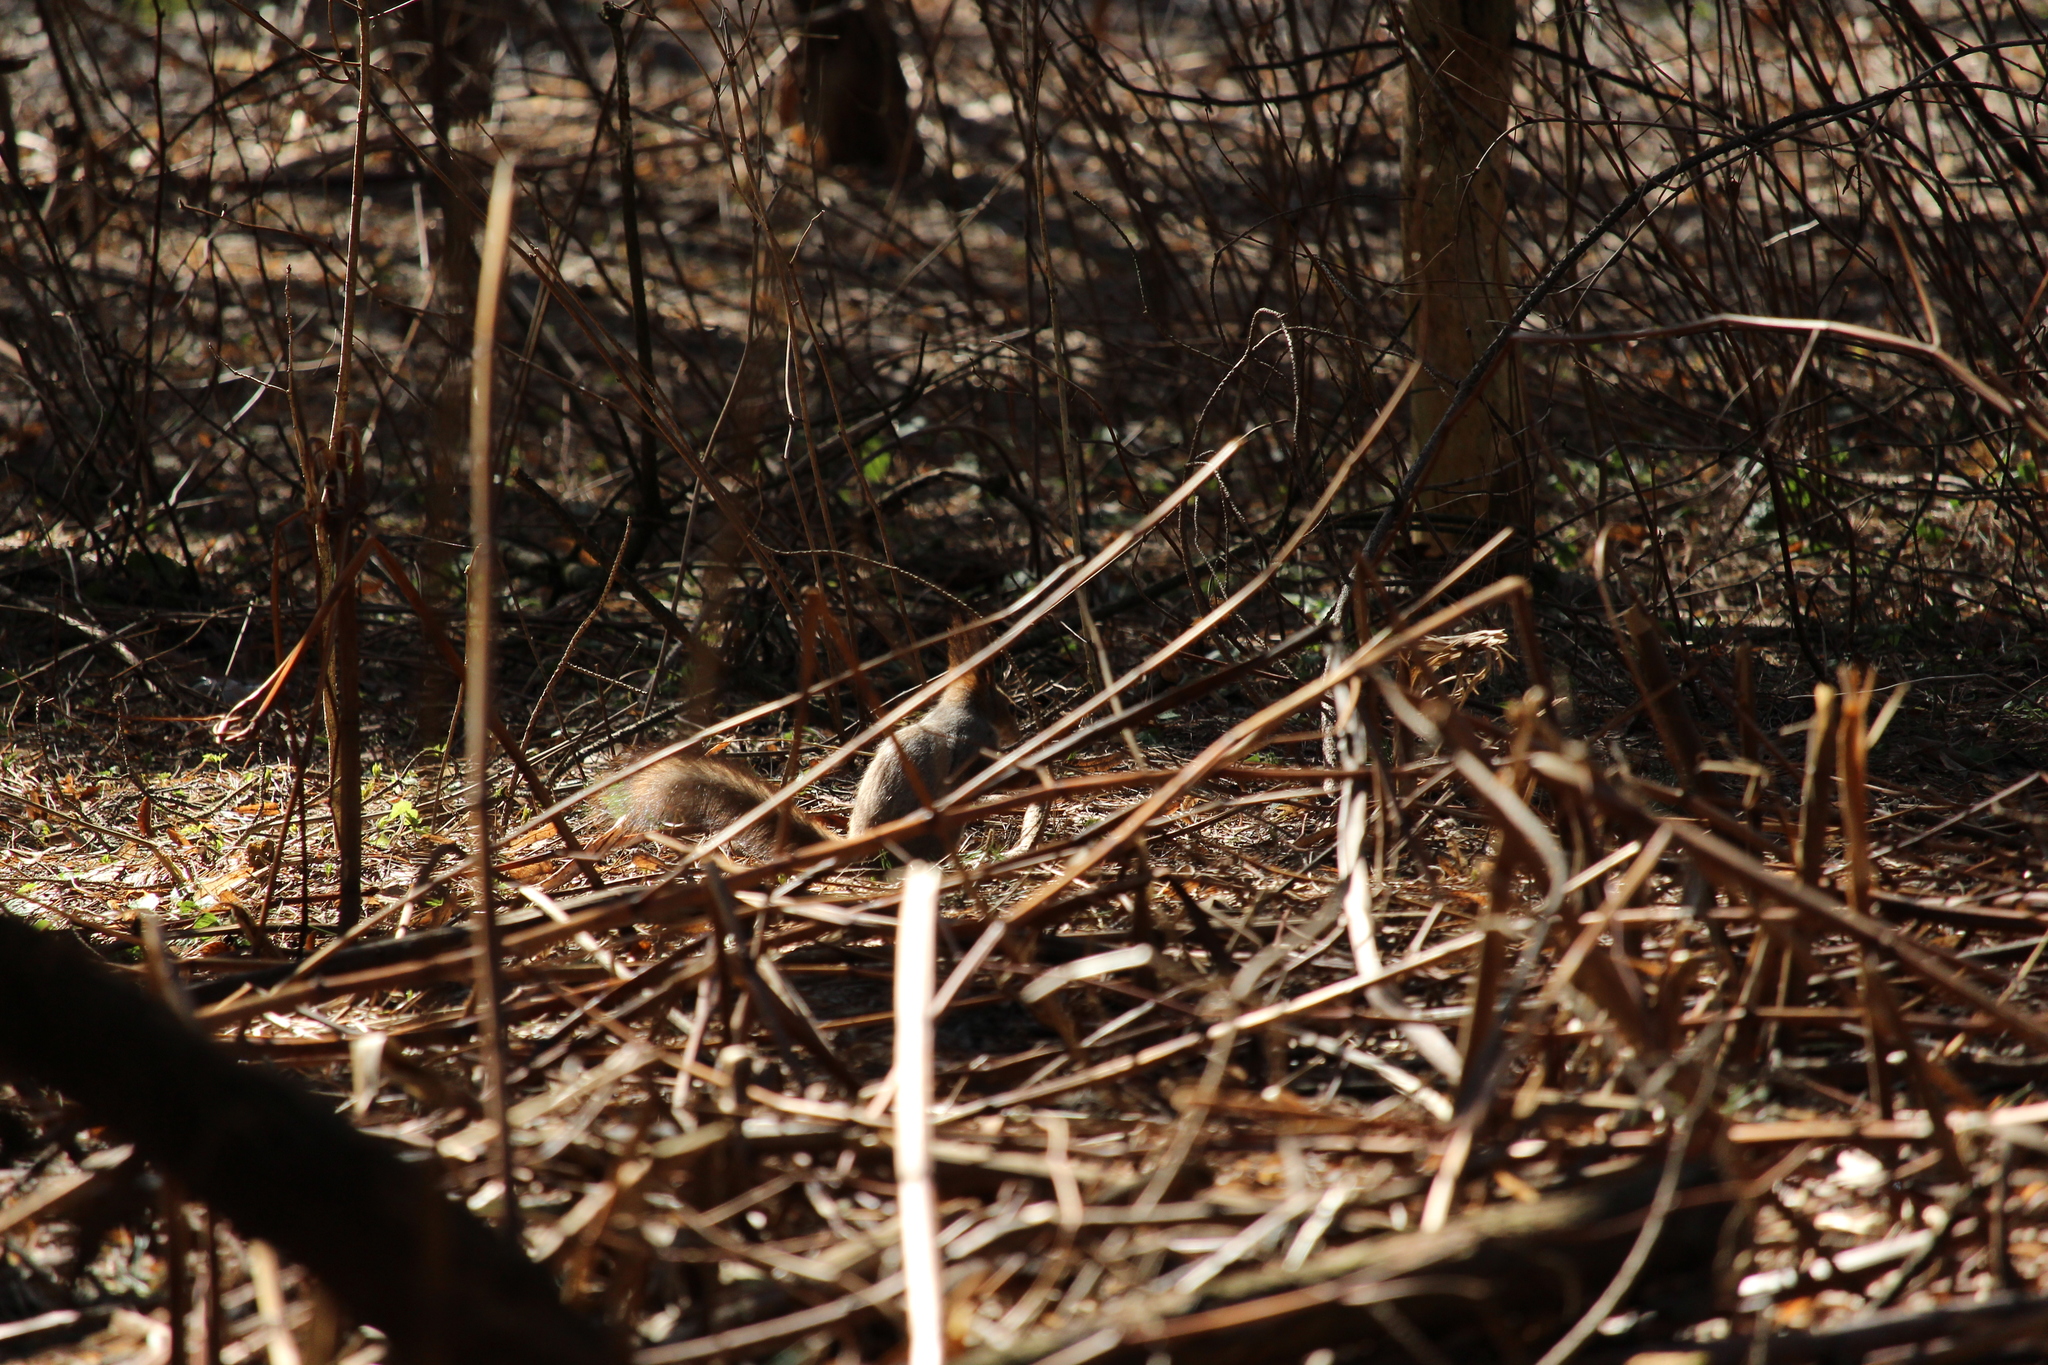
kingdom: Animalia
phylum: Chordata
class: Mammalia
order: Rodentia
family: Sciuridae
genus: Sciurus
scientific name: Sciurus vulgaris
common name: Eurasian red squirrel
